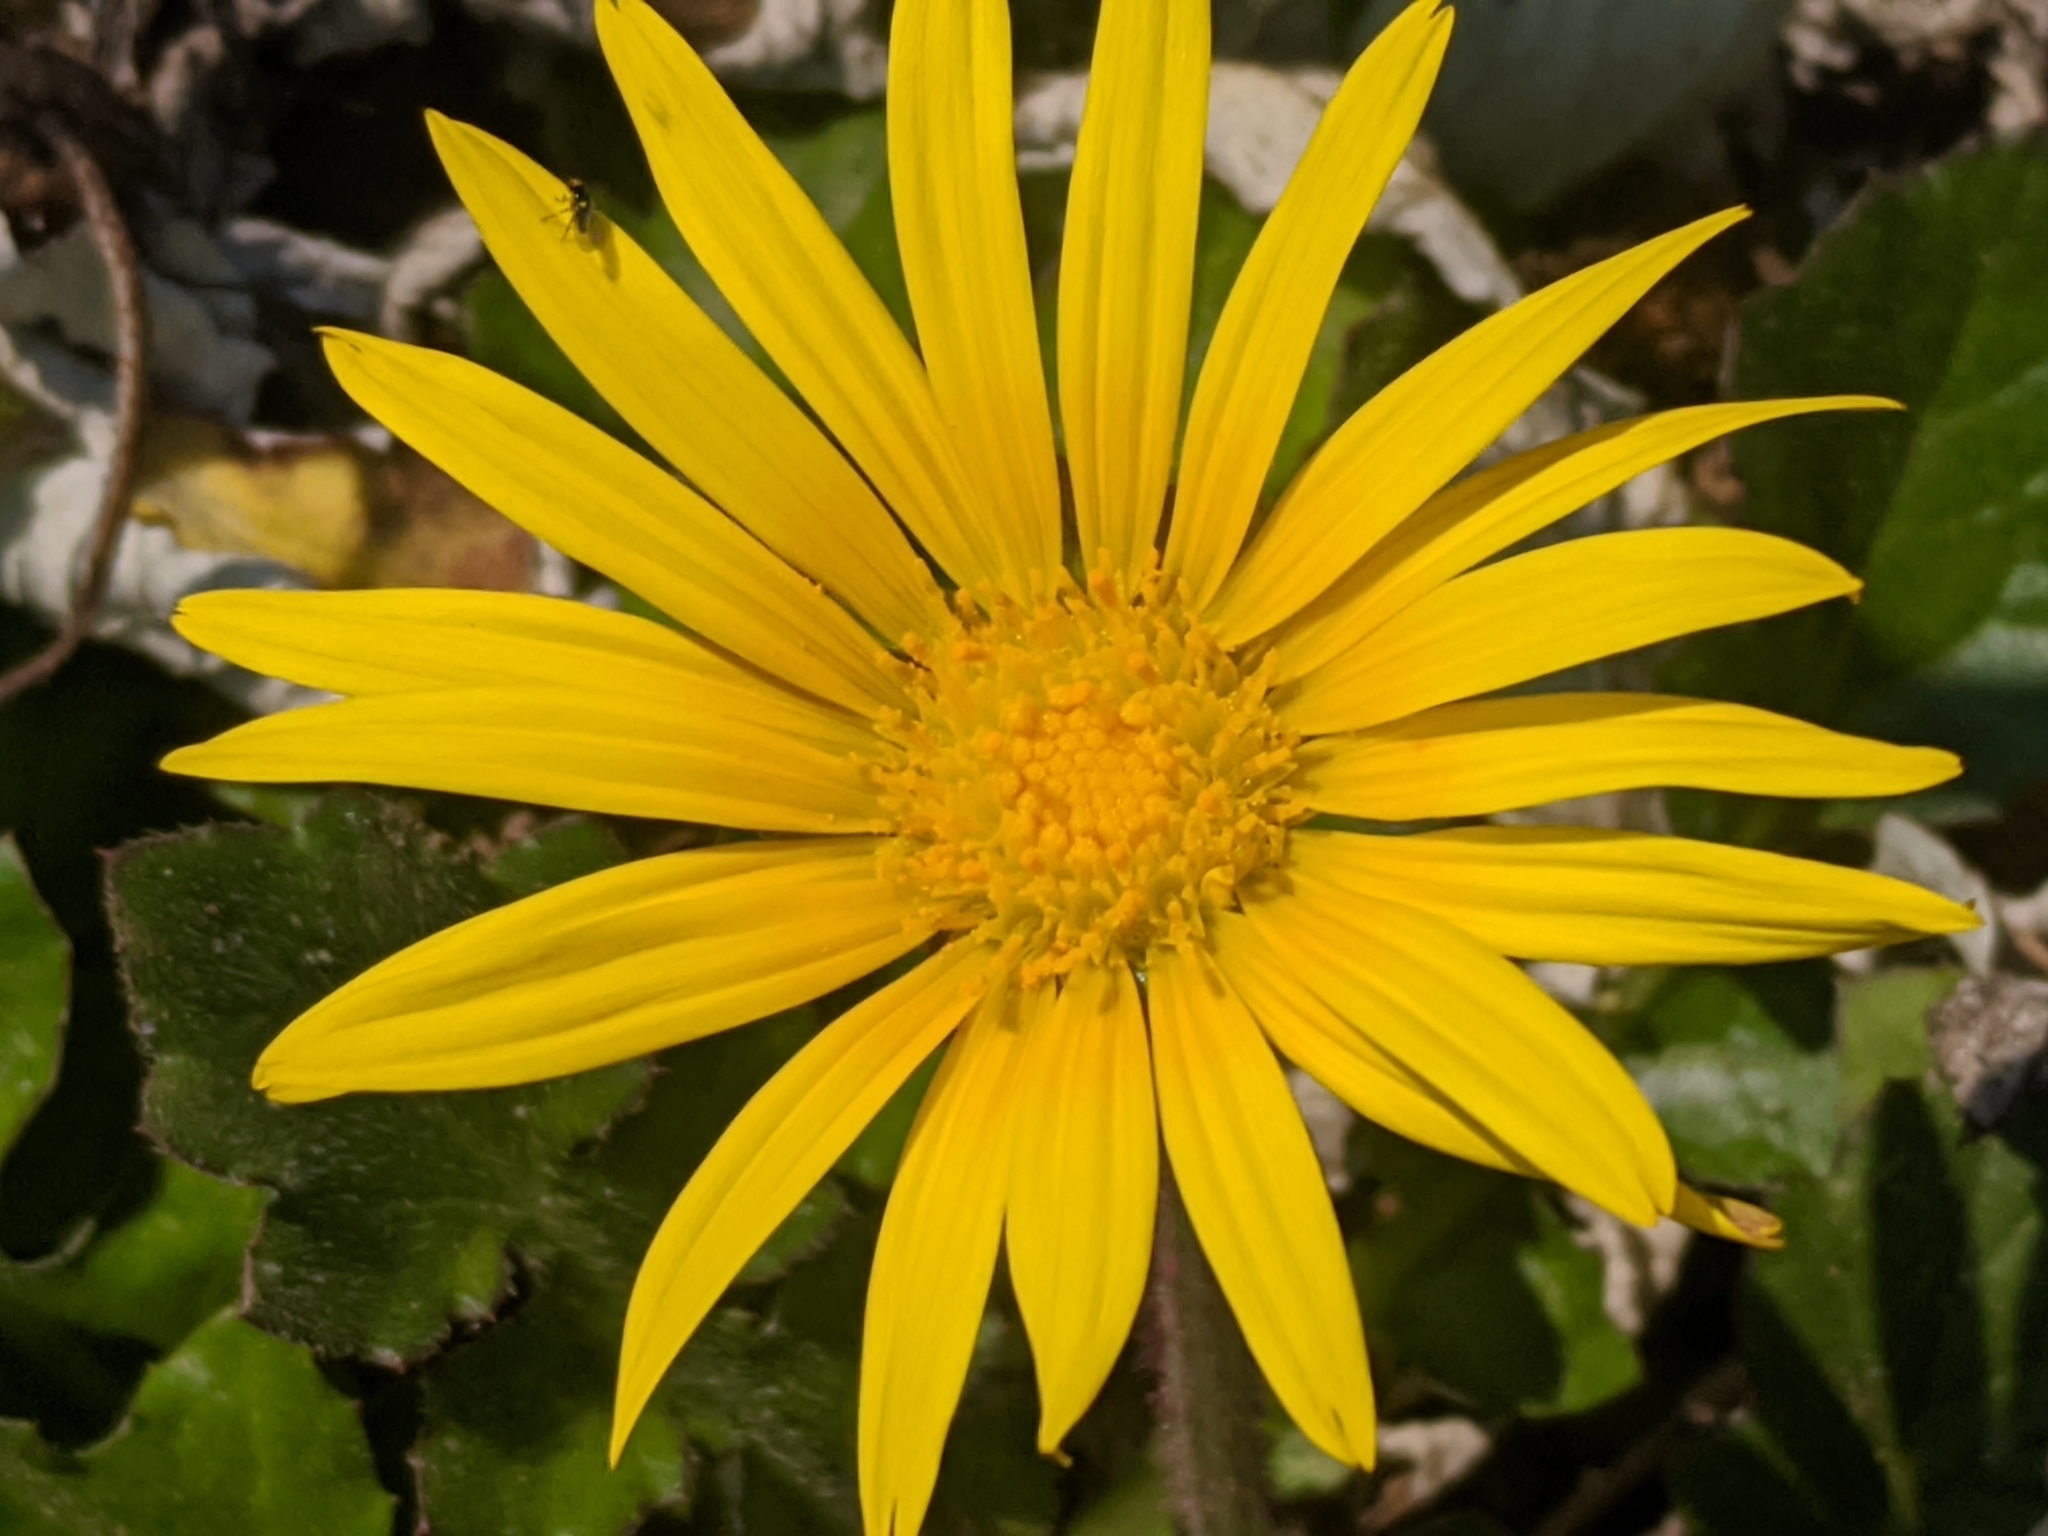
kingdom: Plantae
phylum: Tracheophyta
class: Magnoliopsida
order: Asterales
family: Asteraceae
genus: Arctotheca
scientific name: Arctotheca prostrata
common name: Capeweed
